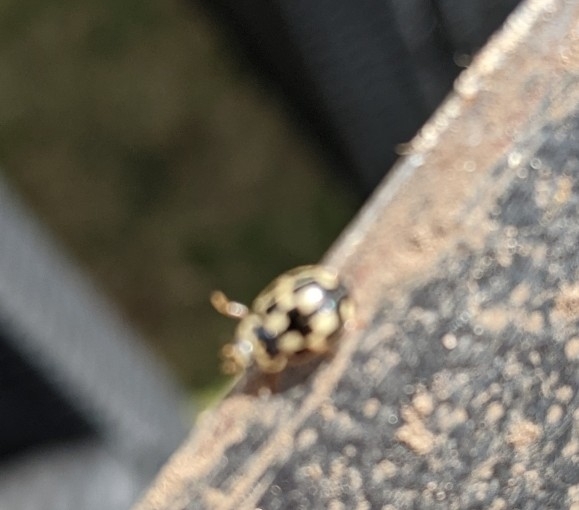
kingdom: Animalia
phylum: Arthropoda
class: Insecta
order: Coleoptera
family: Coccinellidae
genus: Propylaea
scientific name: Propylaea quatuordecimpunctata
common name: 14-spotted ladybird beetle
